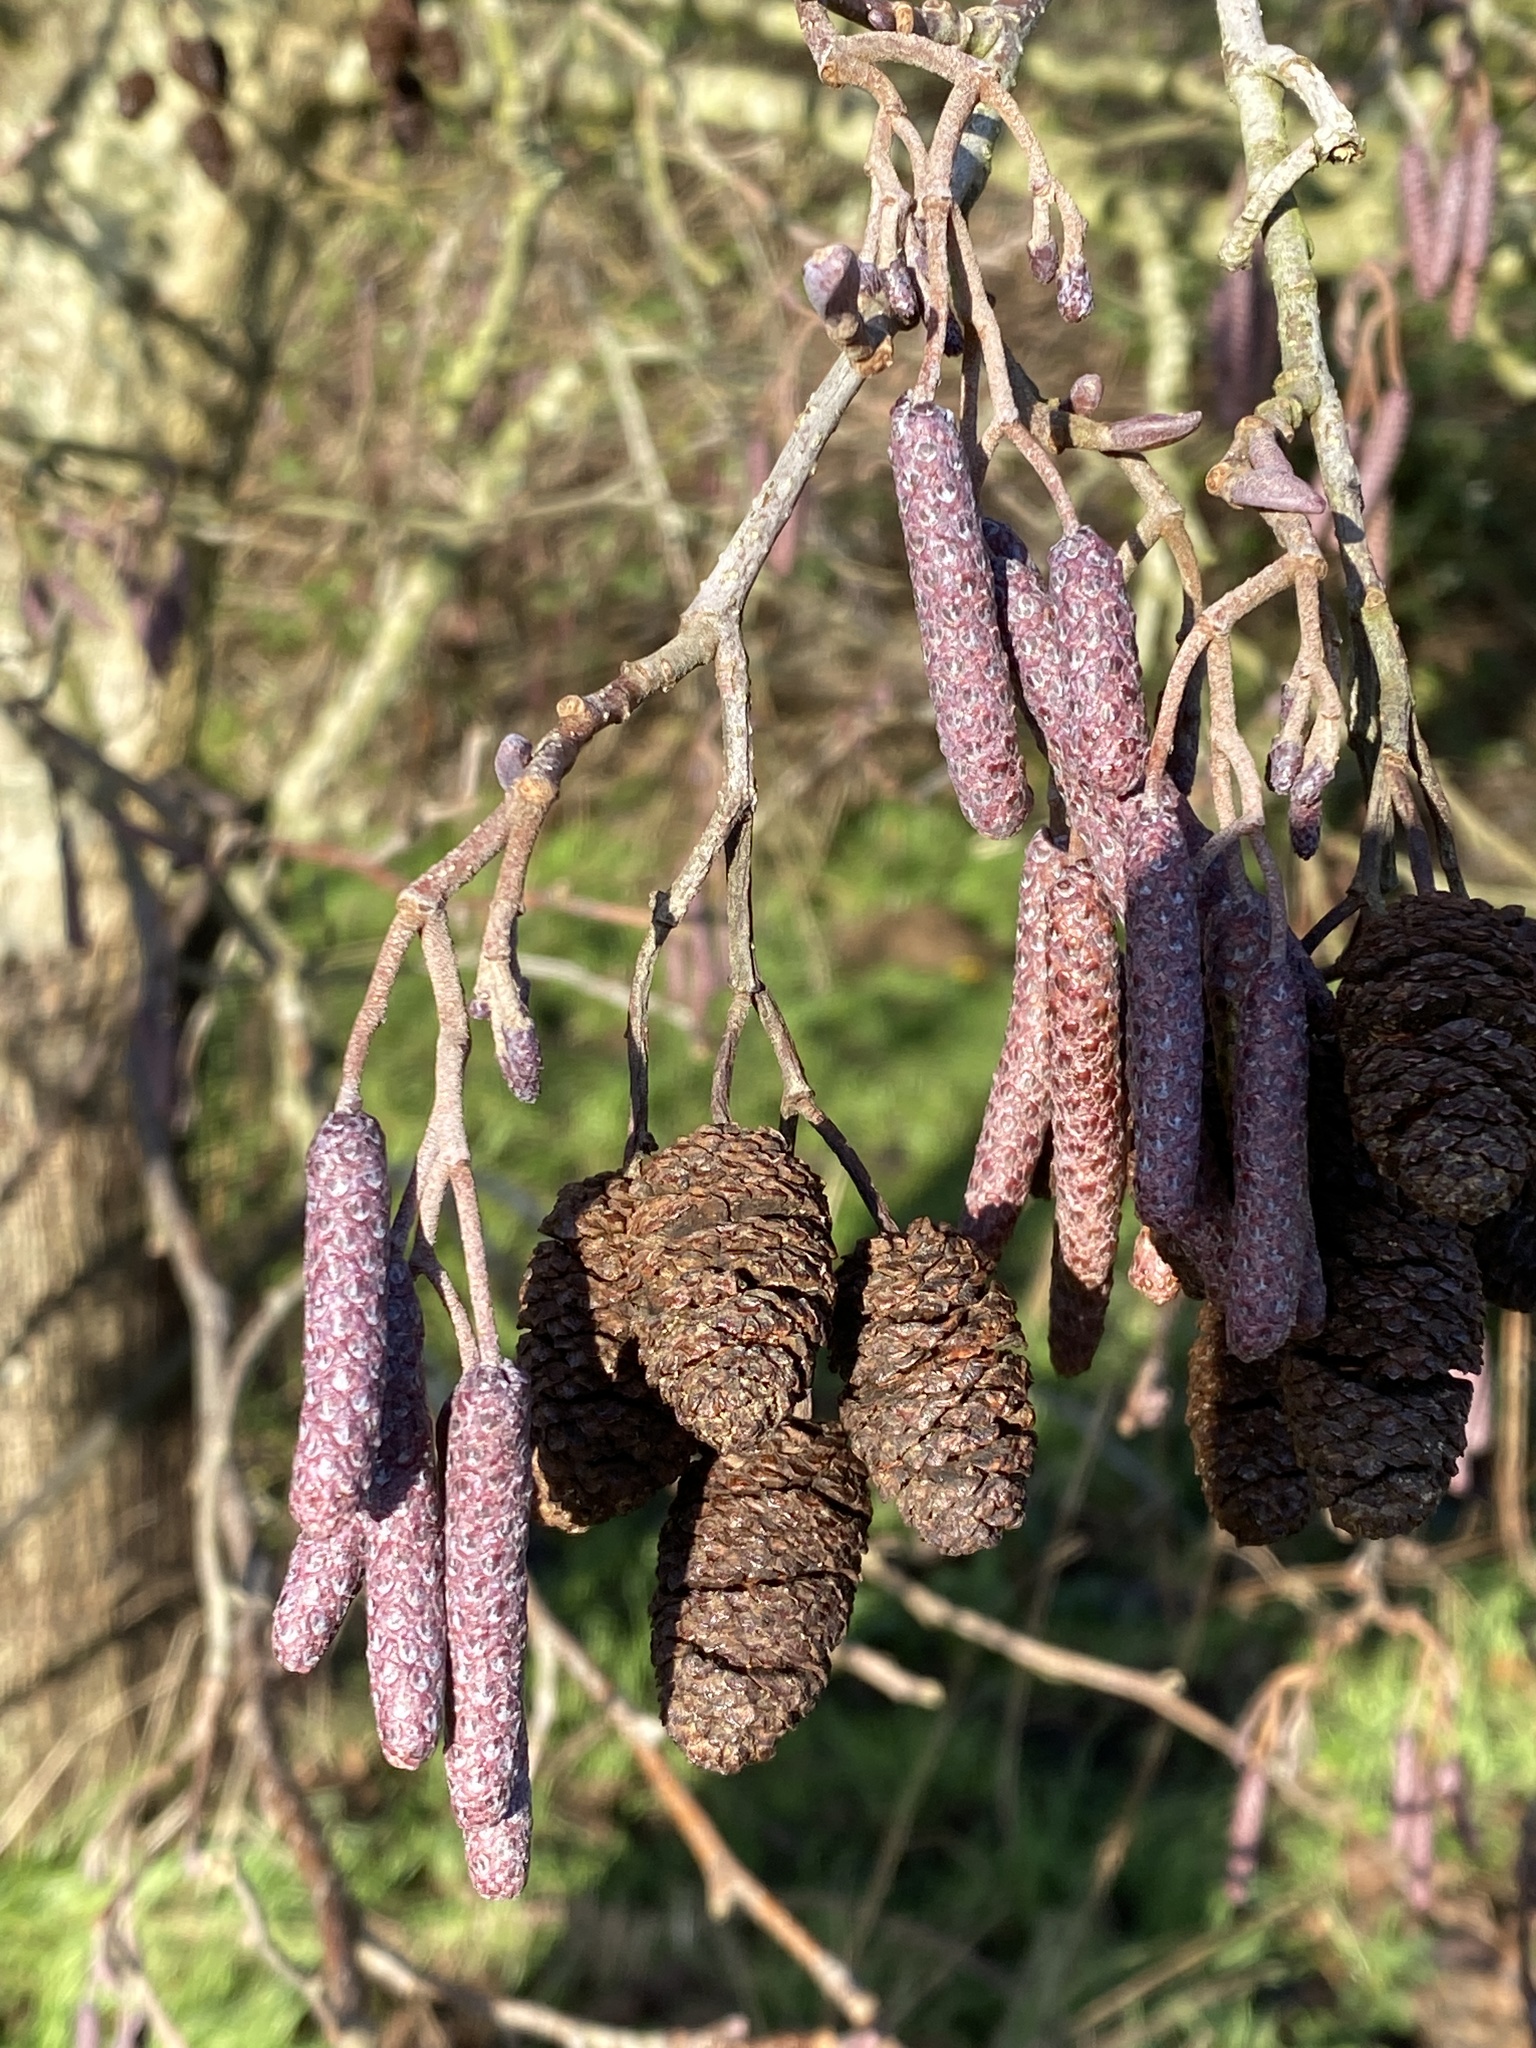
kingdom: Plantae
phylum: Tracheophyta
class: Magnoliopsida
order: Fagales
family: Betulaceae
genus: Alnus
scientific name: Alnus glutinosa
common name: Black alder
